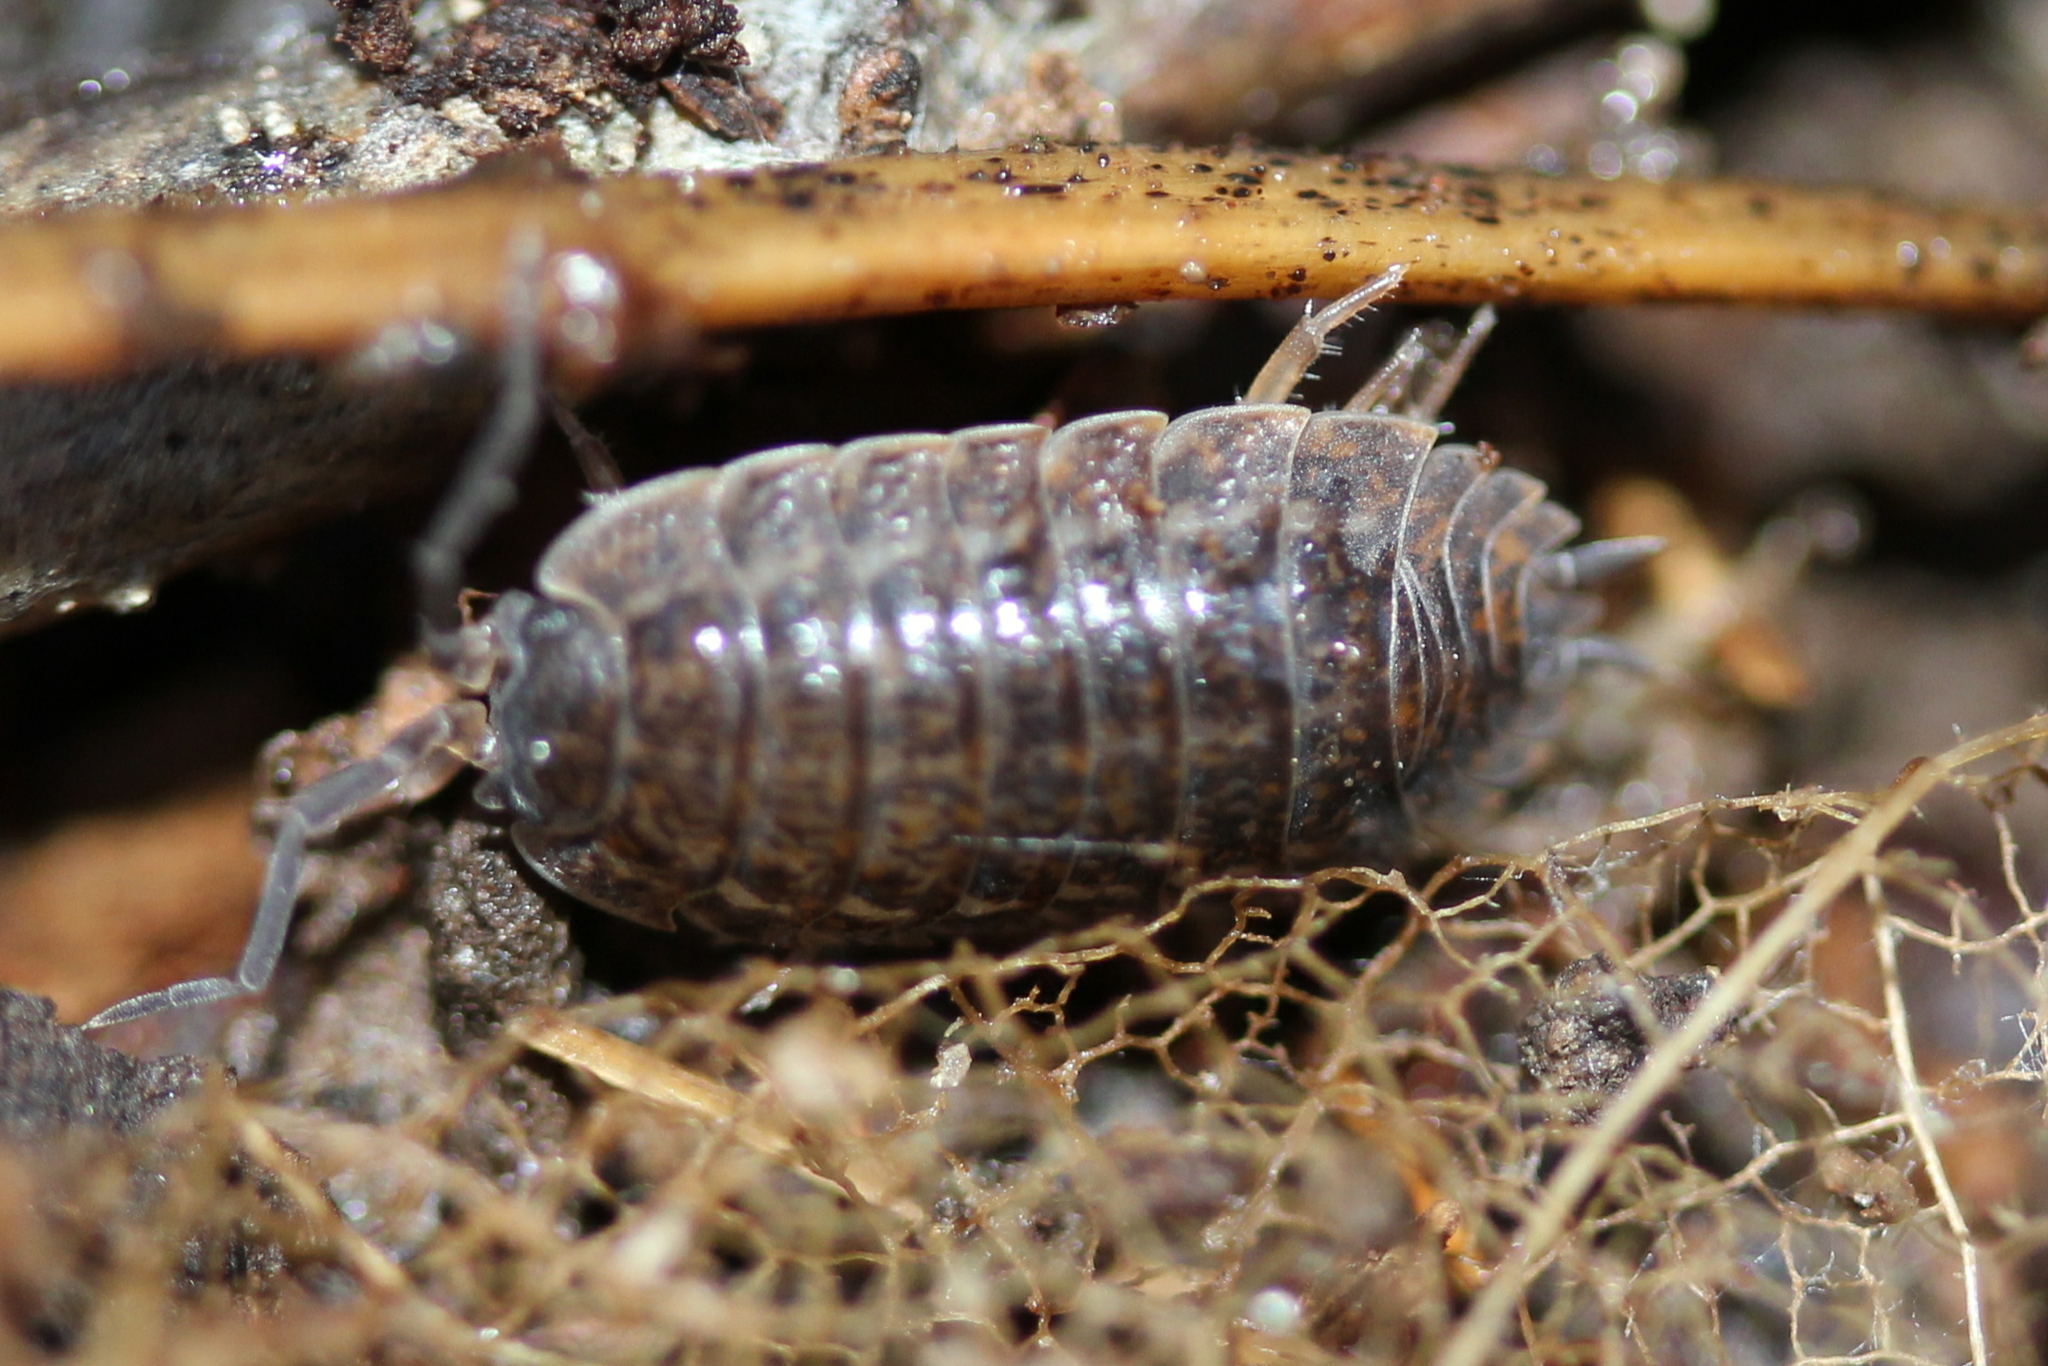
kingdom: Animalia
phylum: Arthropoda
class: Malacostraca
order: Isopoda
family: Trachelipodidae
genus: Trachelipus
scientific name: Trachelipus rathkii
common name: Isopod
